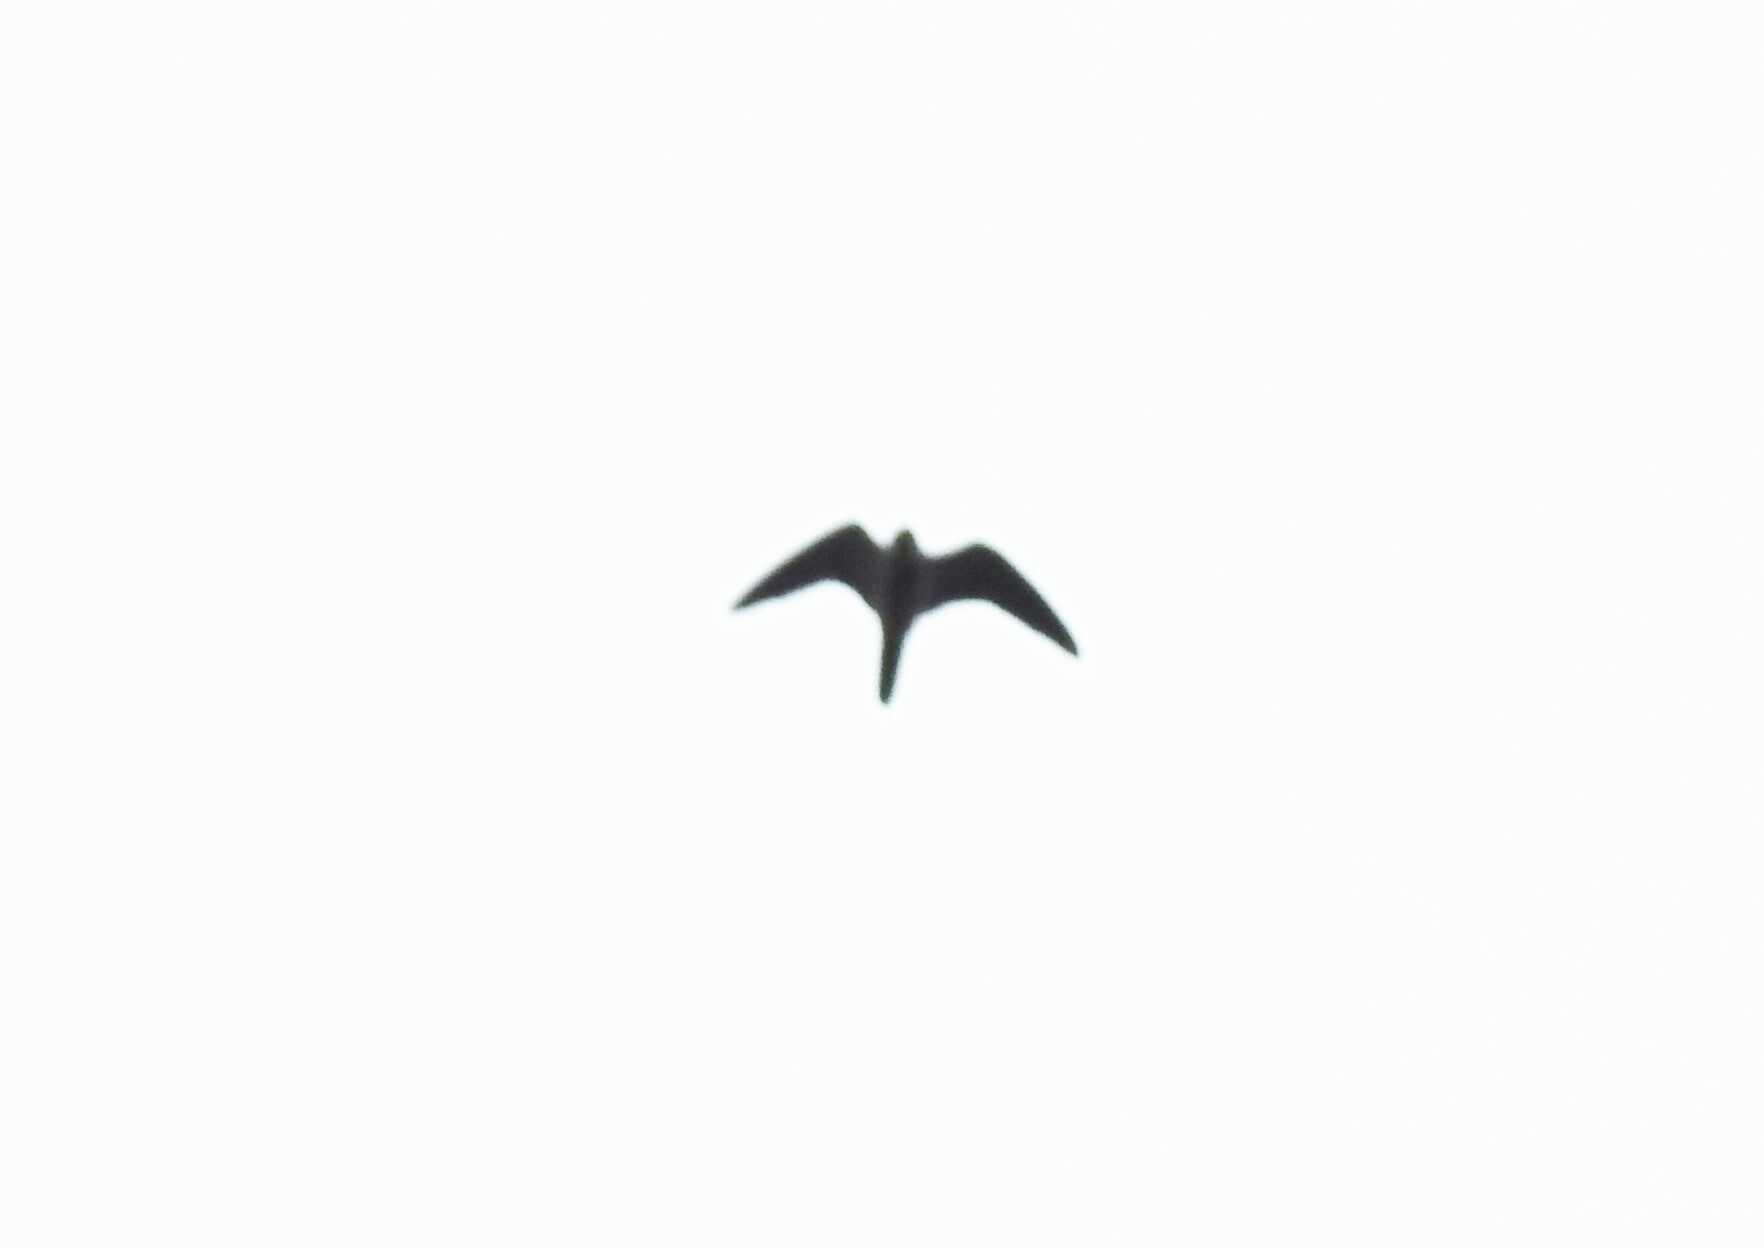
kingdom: Animalia
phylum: Chordata
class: Aves
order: Falconiformes
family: Falconidae
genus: Falco
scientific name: Falco subbuteo
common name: Eurasian hobby
